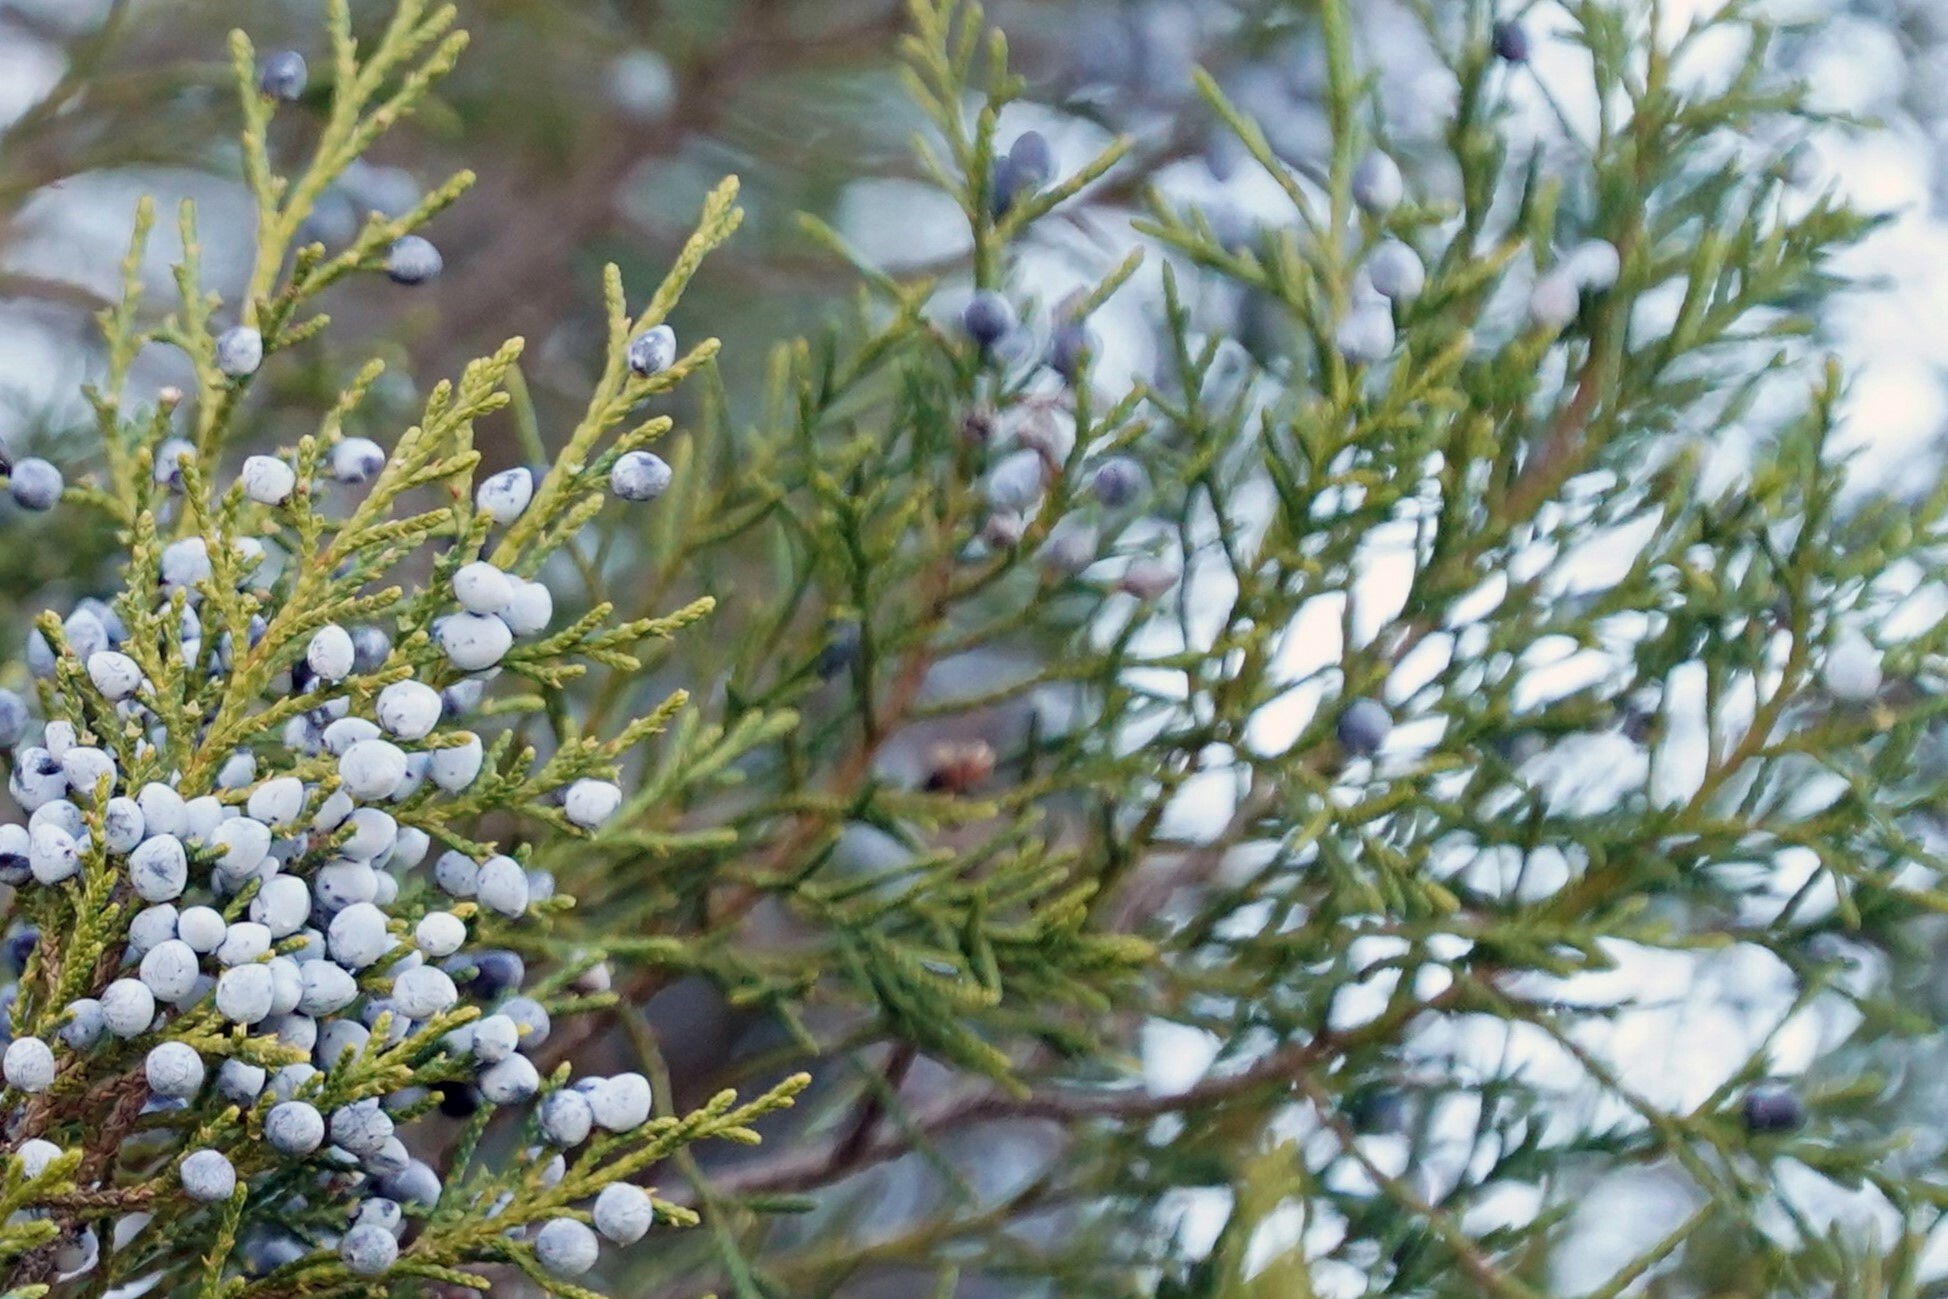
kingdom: Plantae
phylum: Tracheophyta
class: Pinopsida
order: Pinales
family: Cupressaceae
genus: Juniperus
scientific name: Juniperus virginiana
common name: Red juniper
